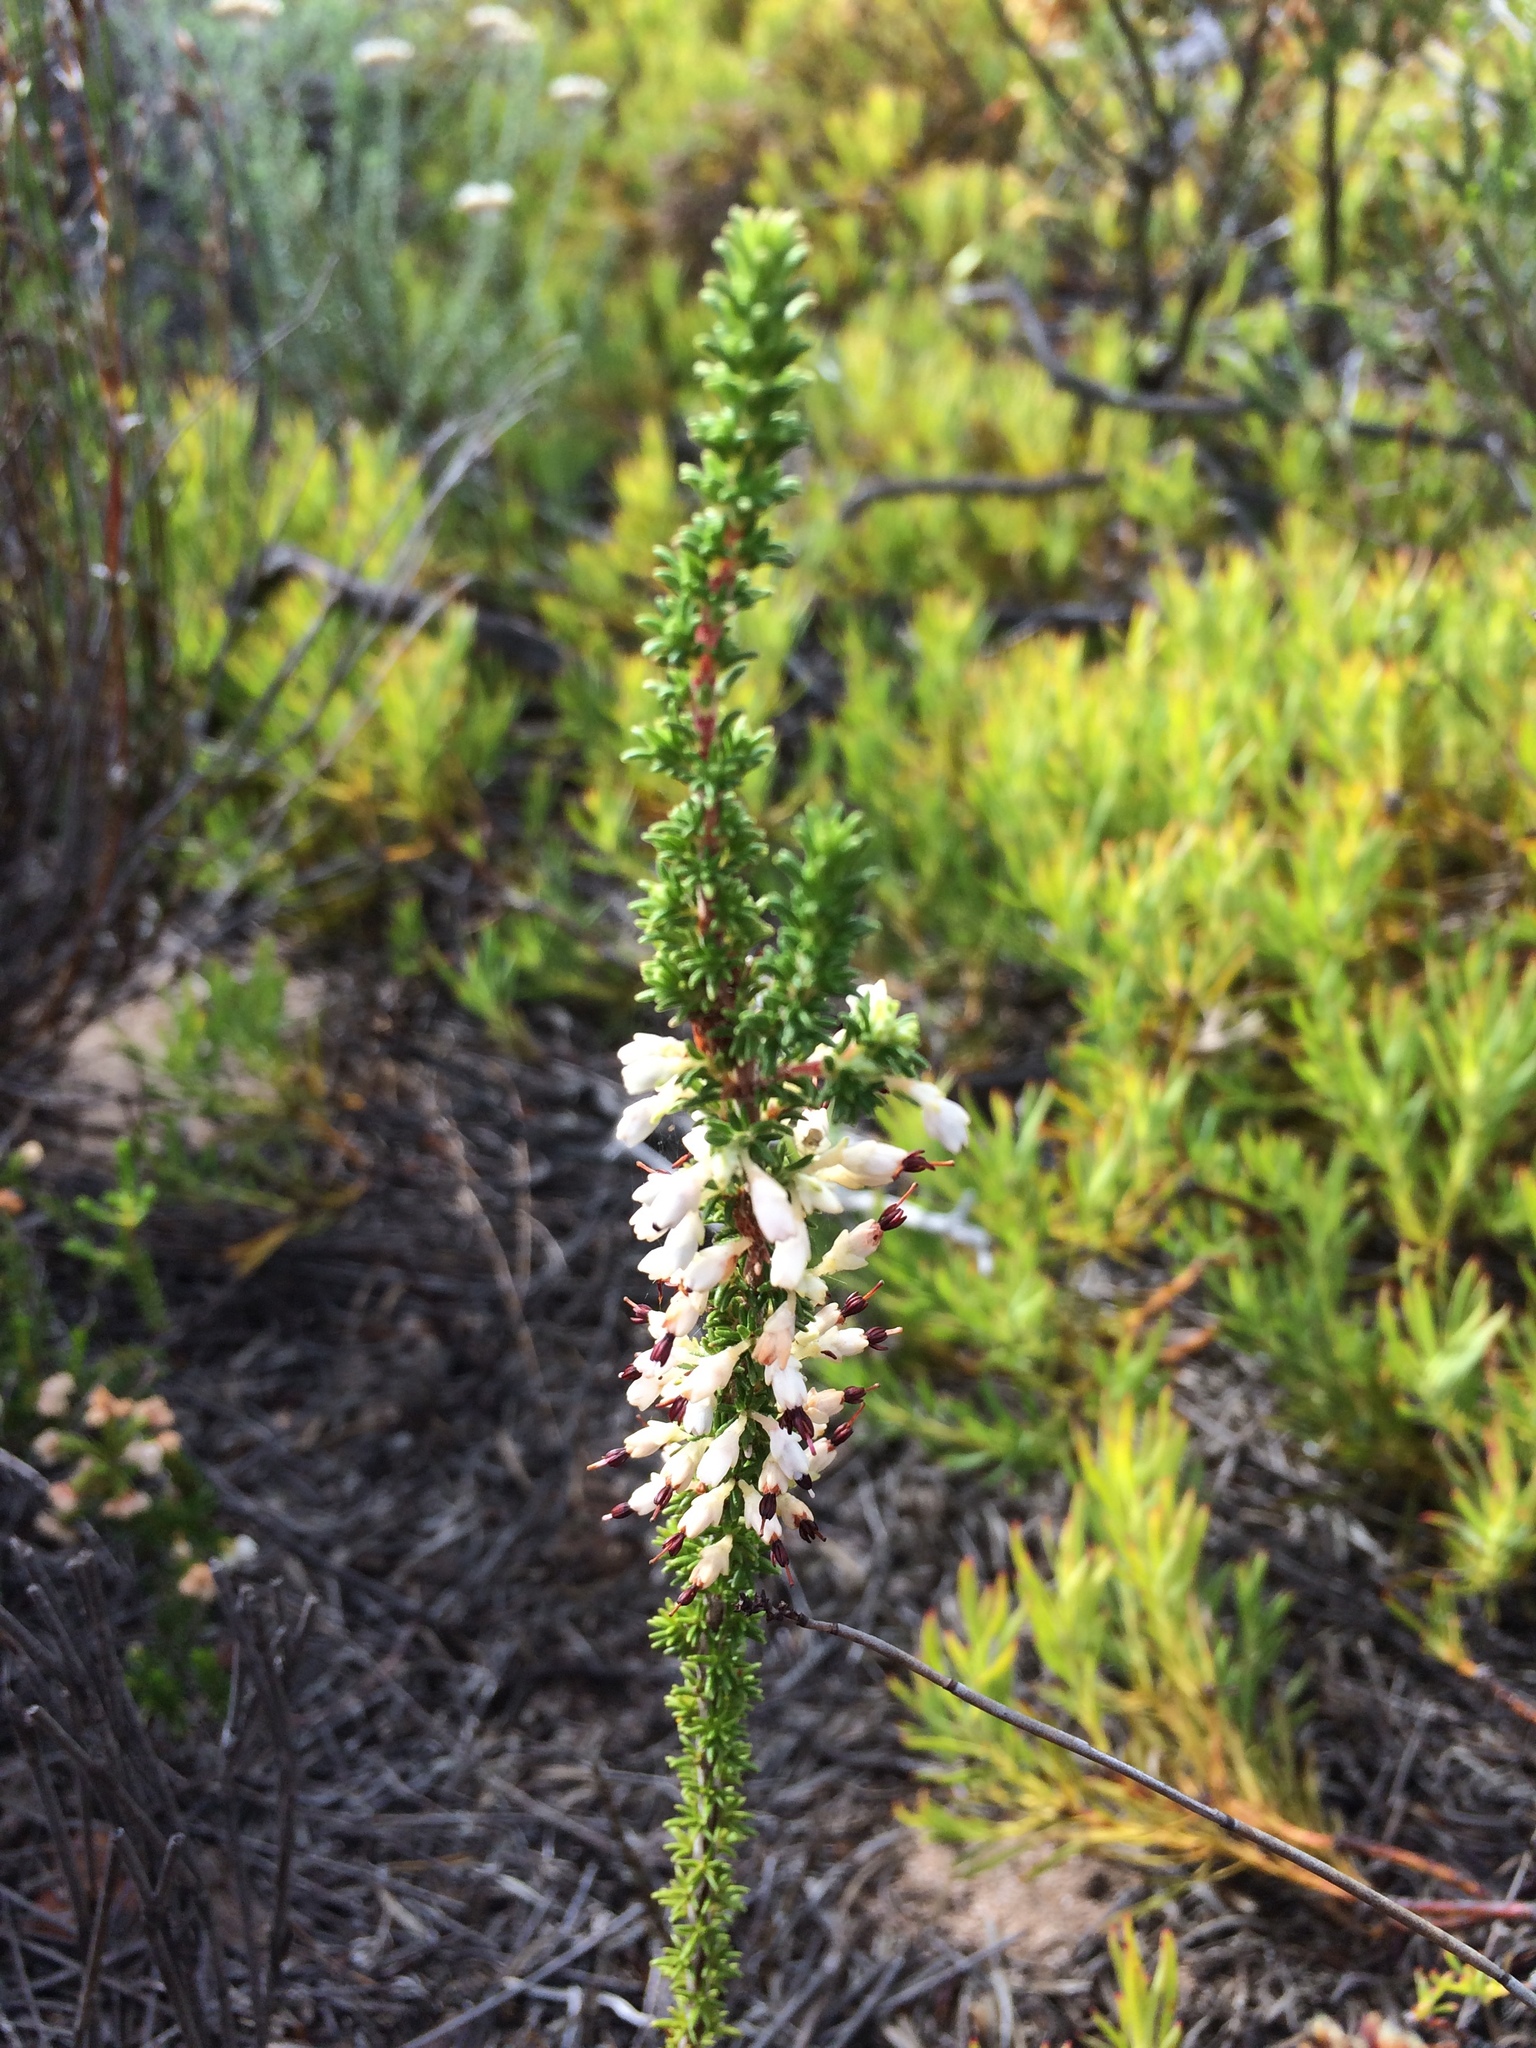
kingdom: Plantae
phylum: Tracheophyta
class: Magnoliopsida
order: Ericales
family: Ericaceae
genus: Erica
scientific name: Erica imbricata
